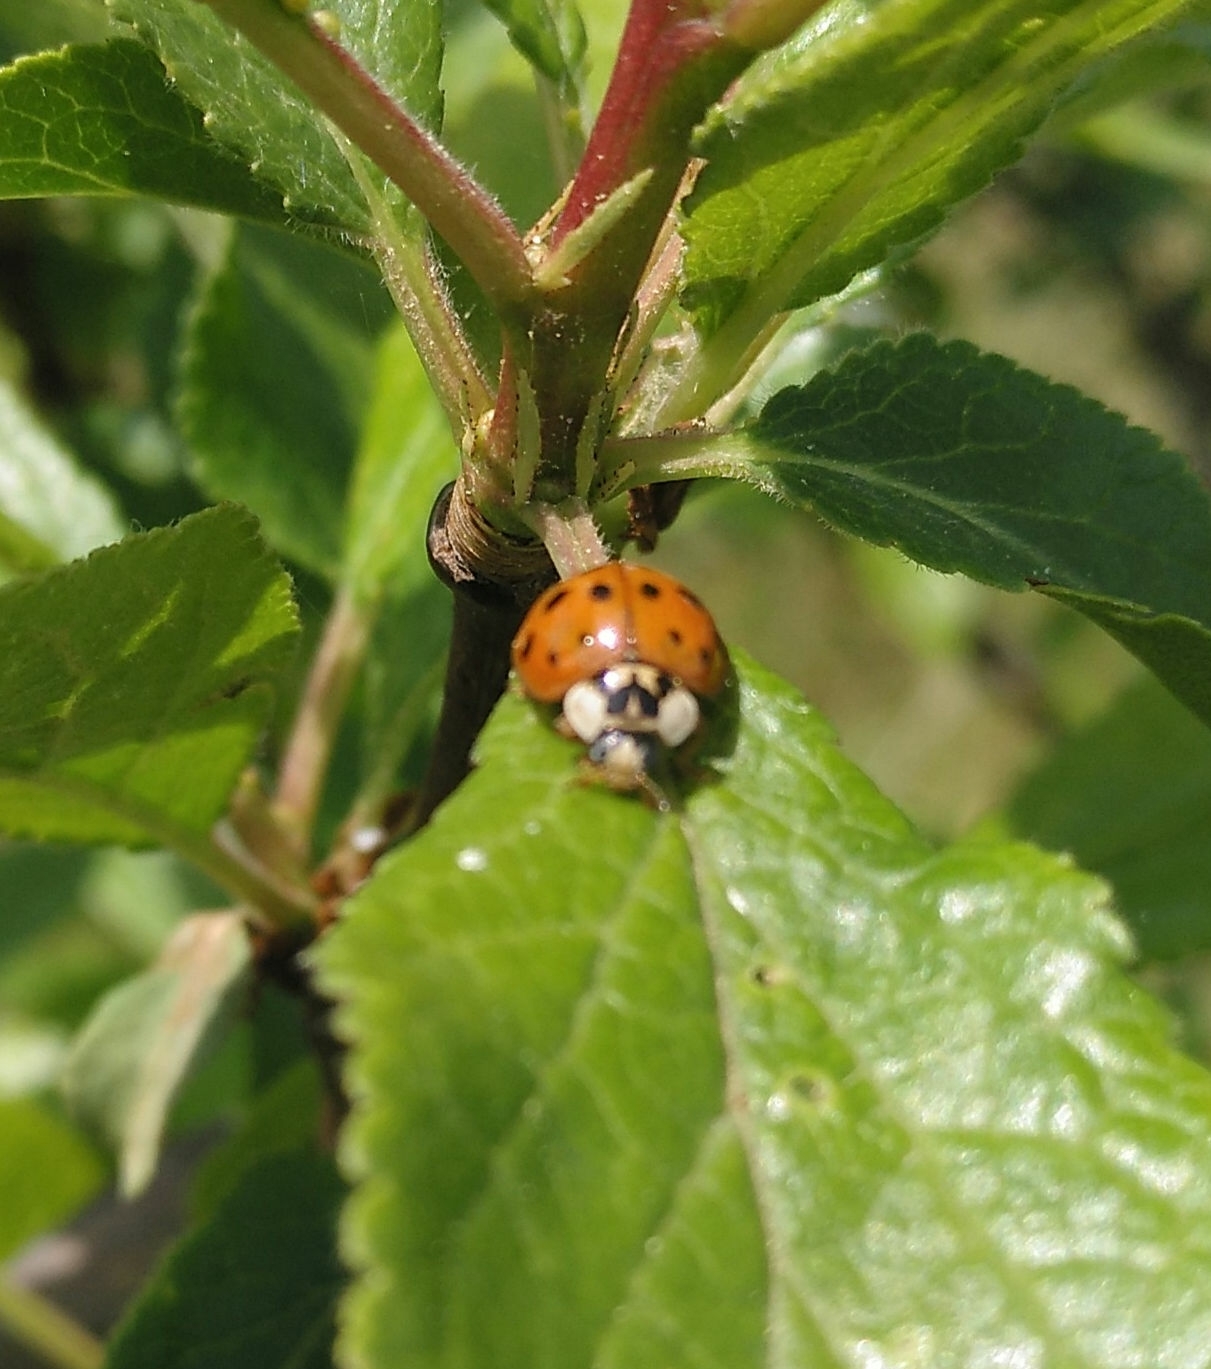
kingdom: Animalia
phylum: Arthropoda
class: Insecta
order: Coleoptera
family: Coccinellidae
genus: Harmonia
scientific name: Harmonia axyridis
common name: Harlequin ladybird
